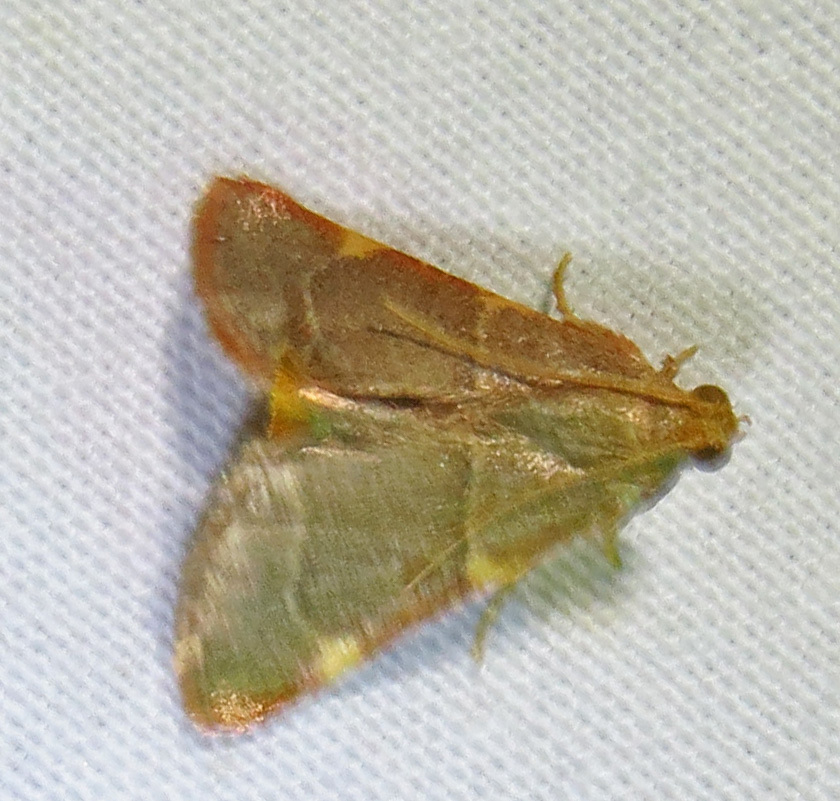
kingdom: Animalia
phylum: Arthropoda
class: Insecta
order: Lepidoptera
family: Pyralidae
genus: Hypsopygia
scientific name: Hypsopygia binodulalis
